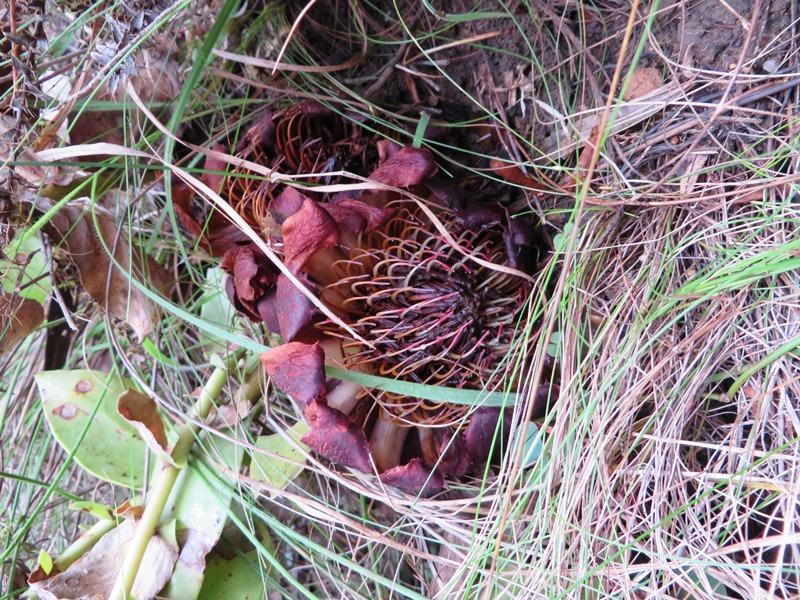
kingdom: Plantae
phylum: Tracheophyta
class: Magnoliopsida
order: Proteales
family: Proteaceae
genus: Protea
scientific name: Protea amplexicaulis
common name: Clasping-leaf sugarbush
